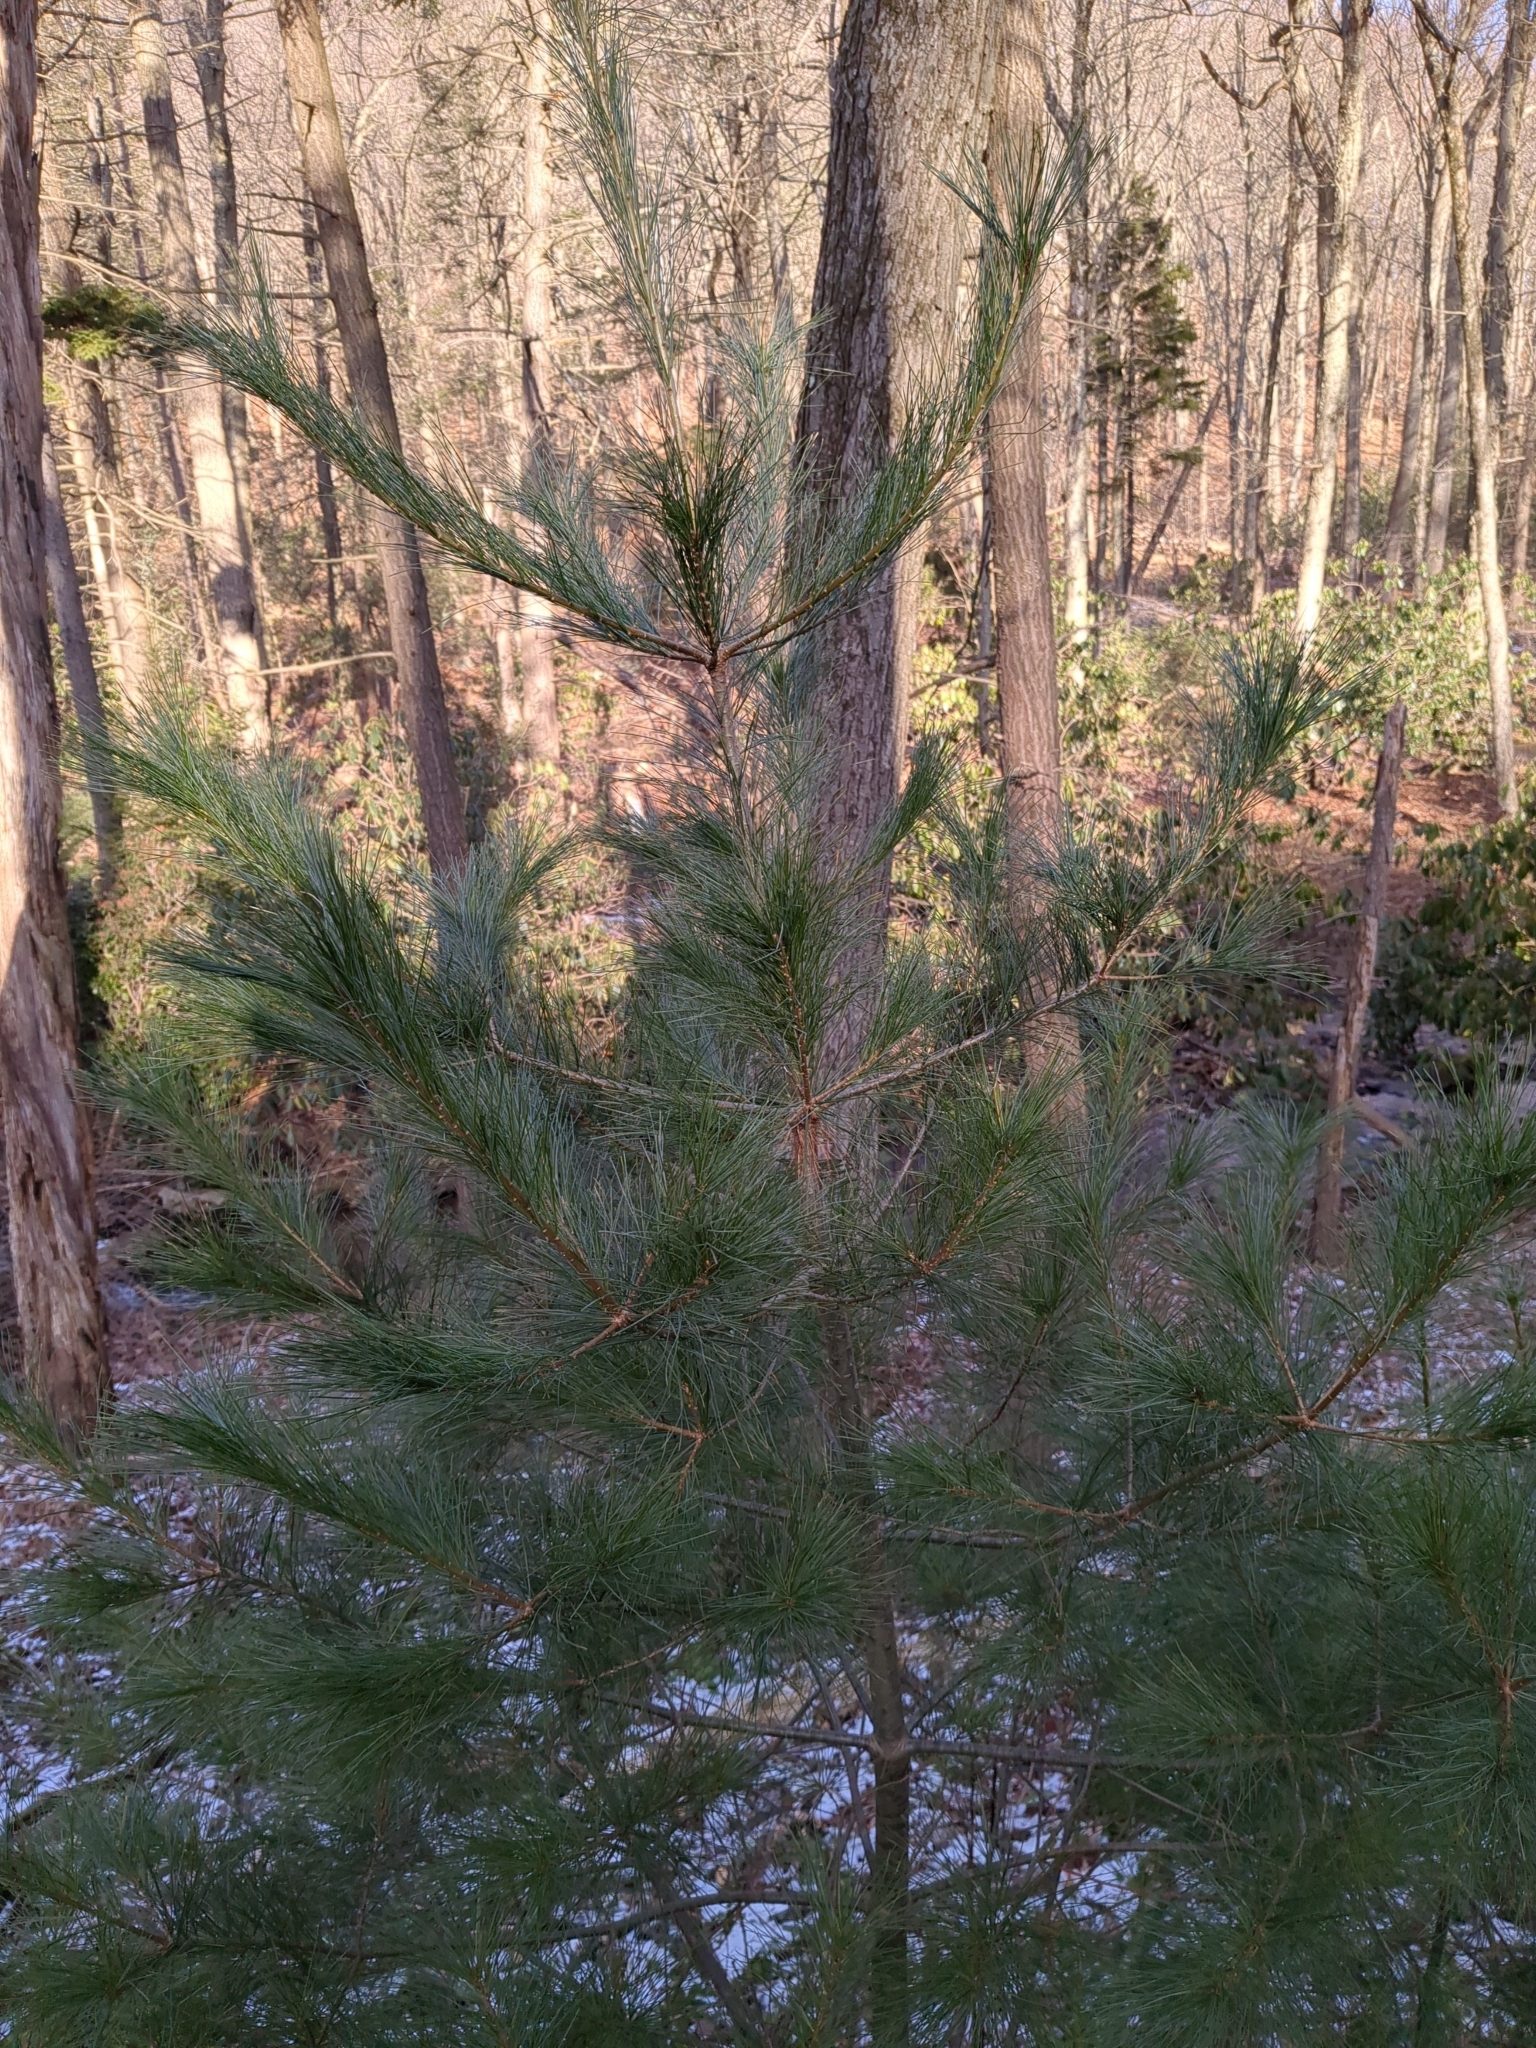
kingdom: Plantae
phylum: Tracheophyta
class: Pinopsida
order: Pinales
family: Pinaceae
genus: Pinus
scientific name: Pinus strobus
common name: Weymouth pine
